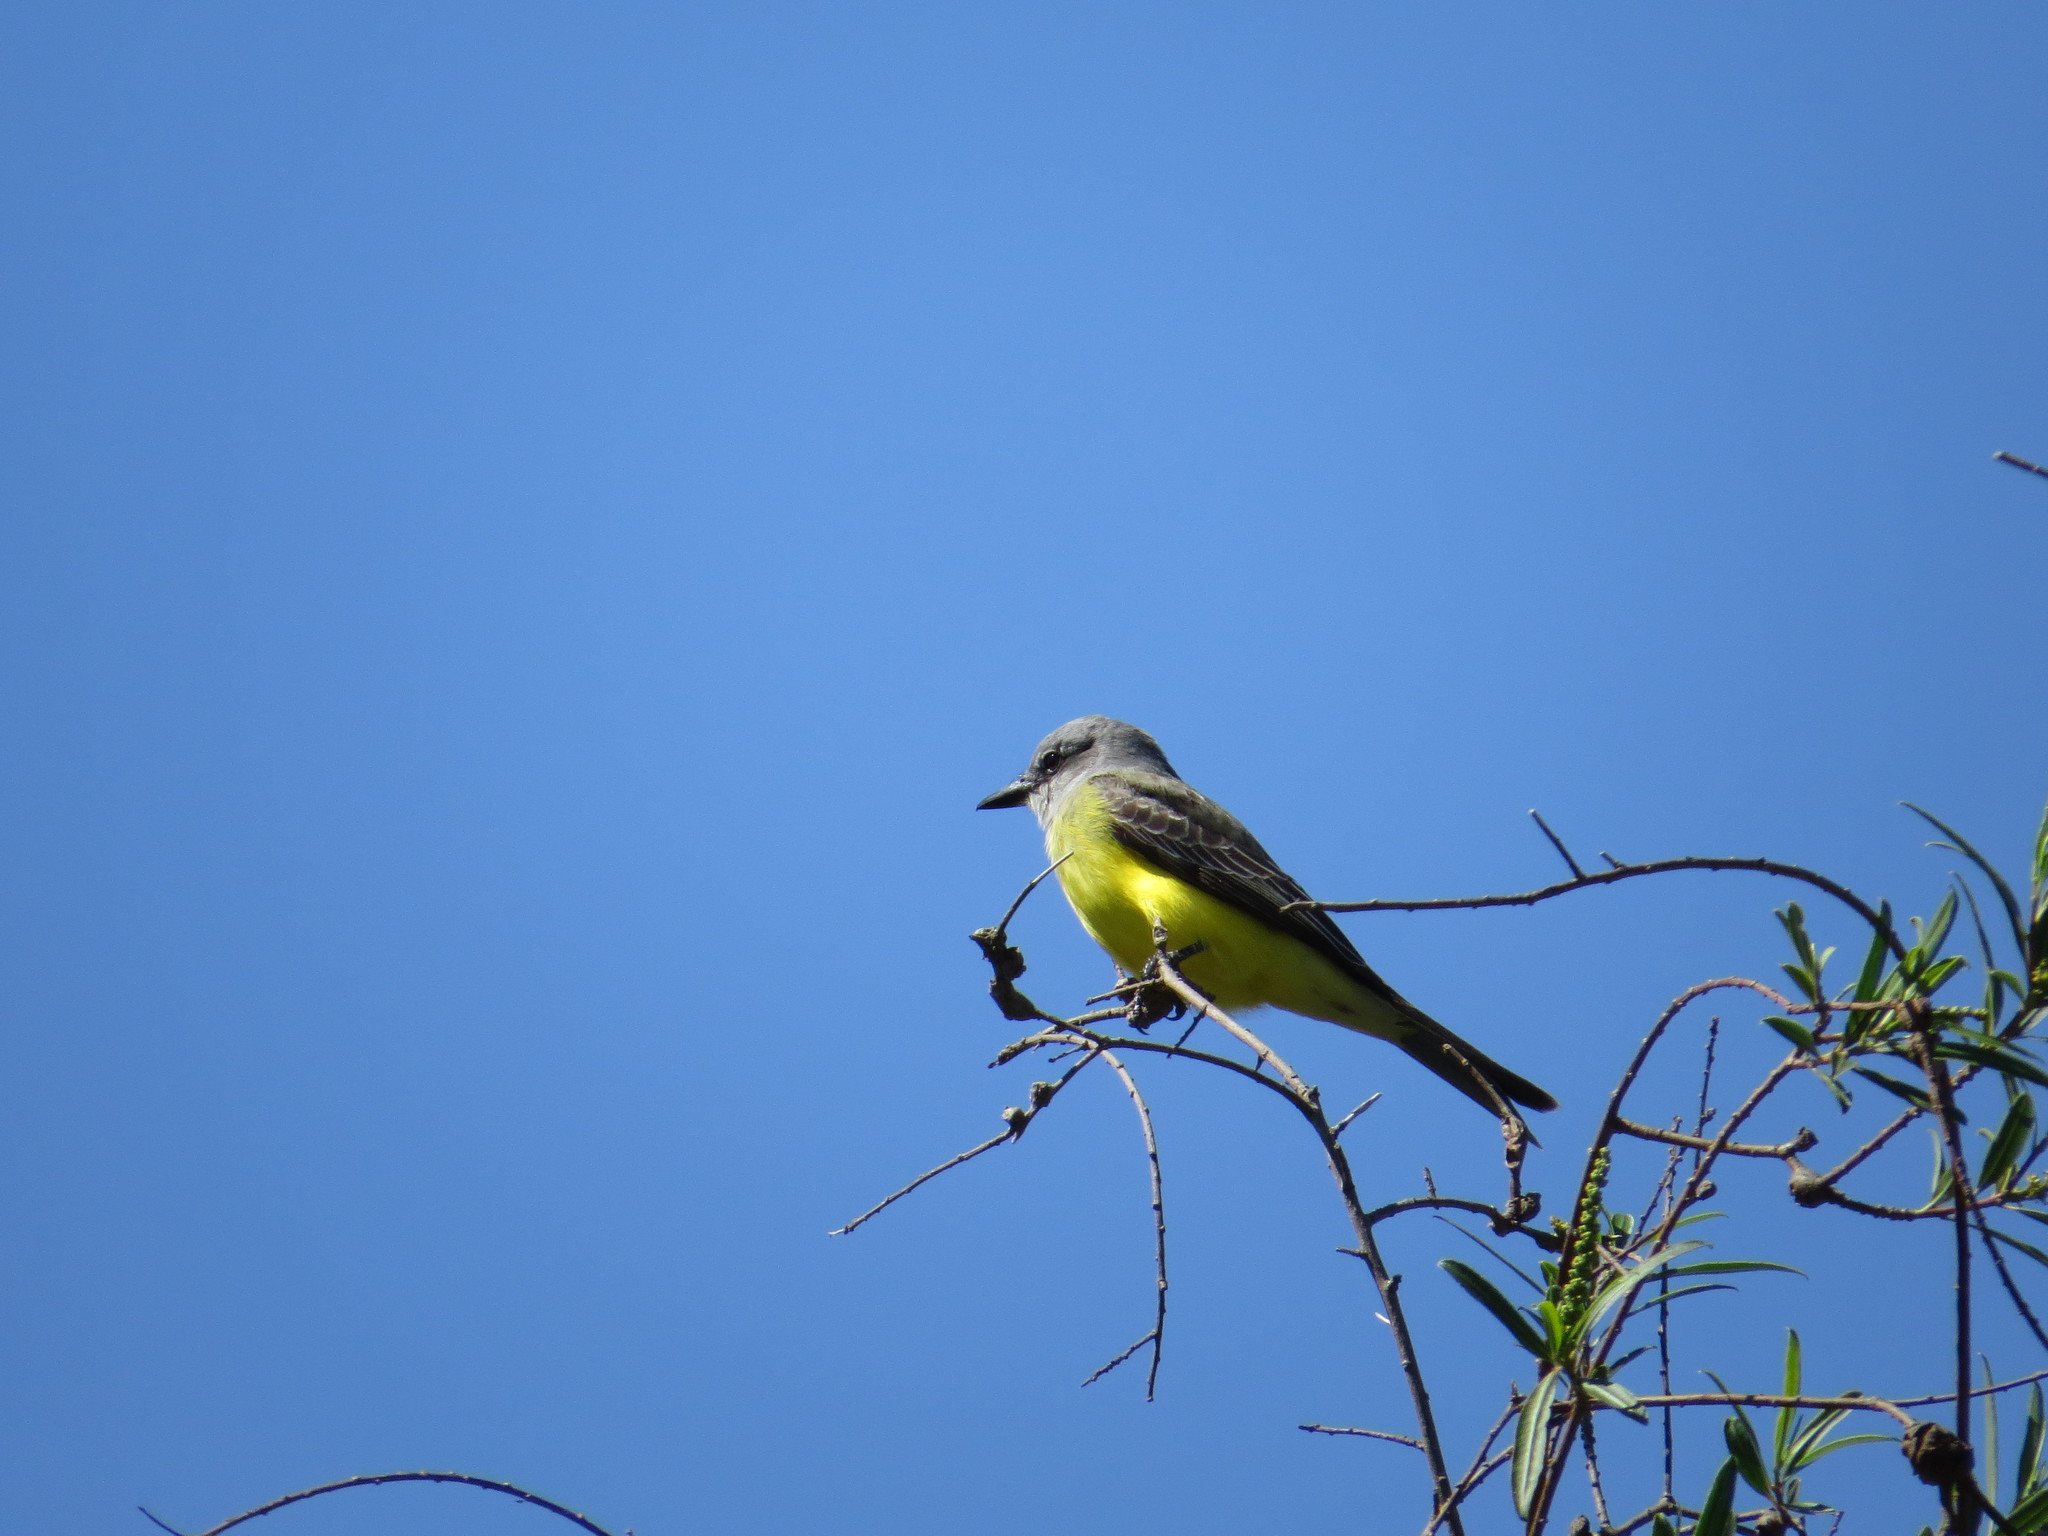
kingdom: Animalia
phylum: Chordata
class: Aves
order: Passeriformes
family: Tyrannidae
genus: Tyrannus
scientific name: Tyrannus melancholicus
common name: Tropical kingbird
